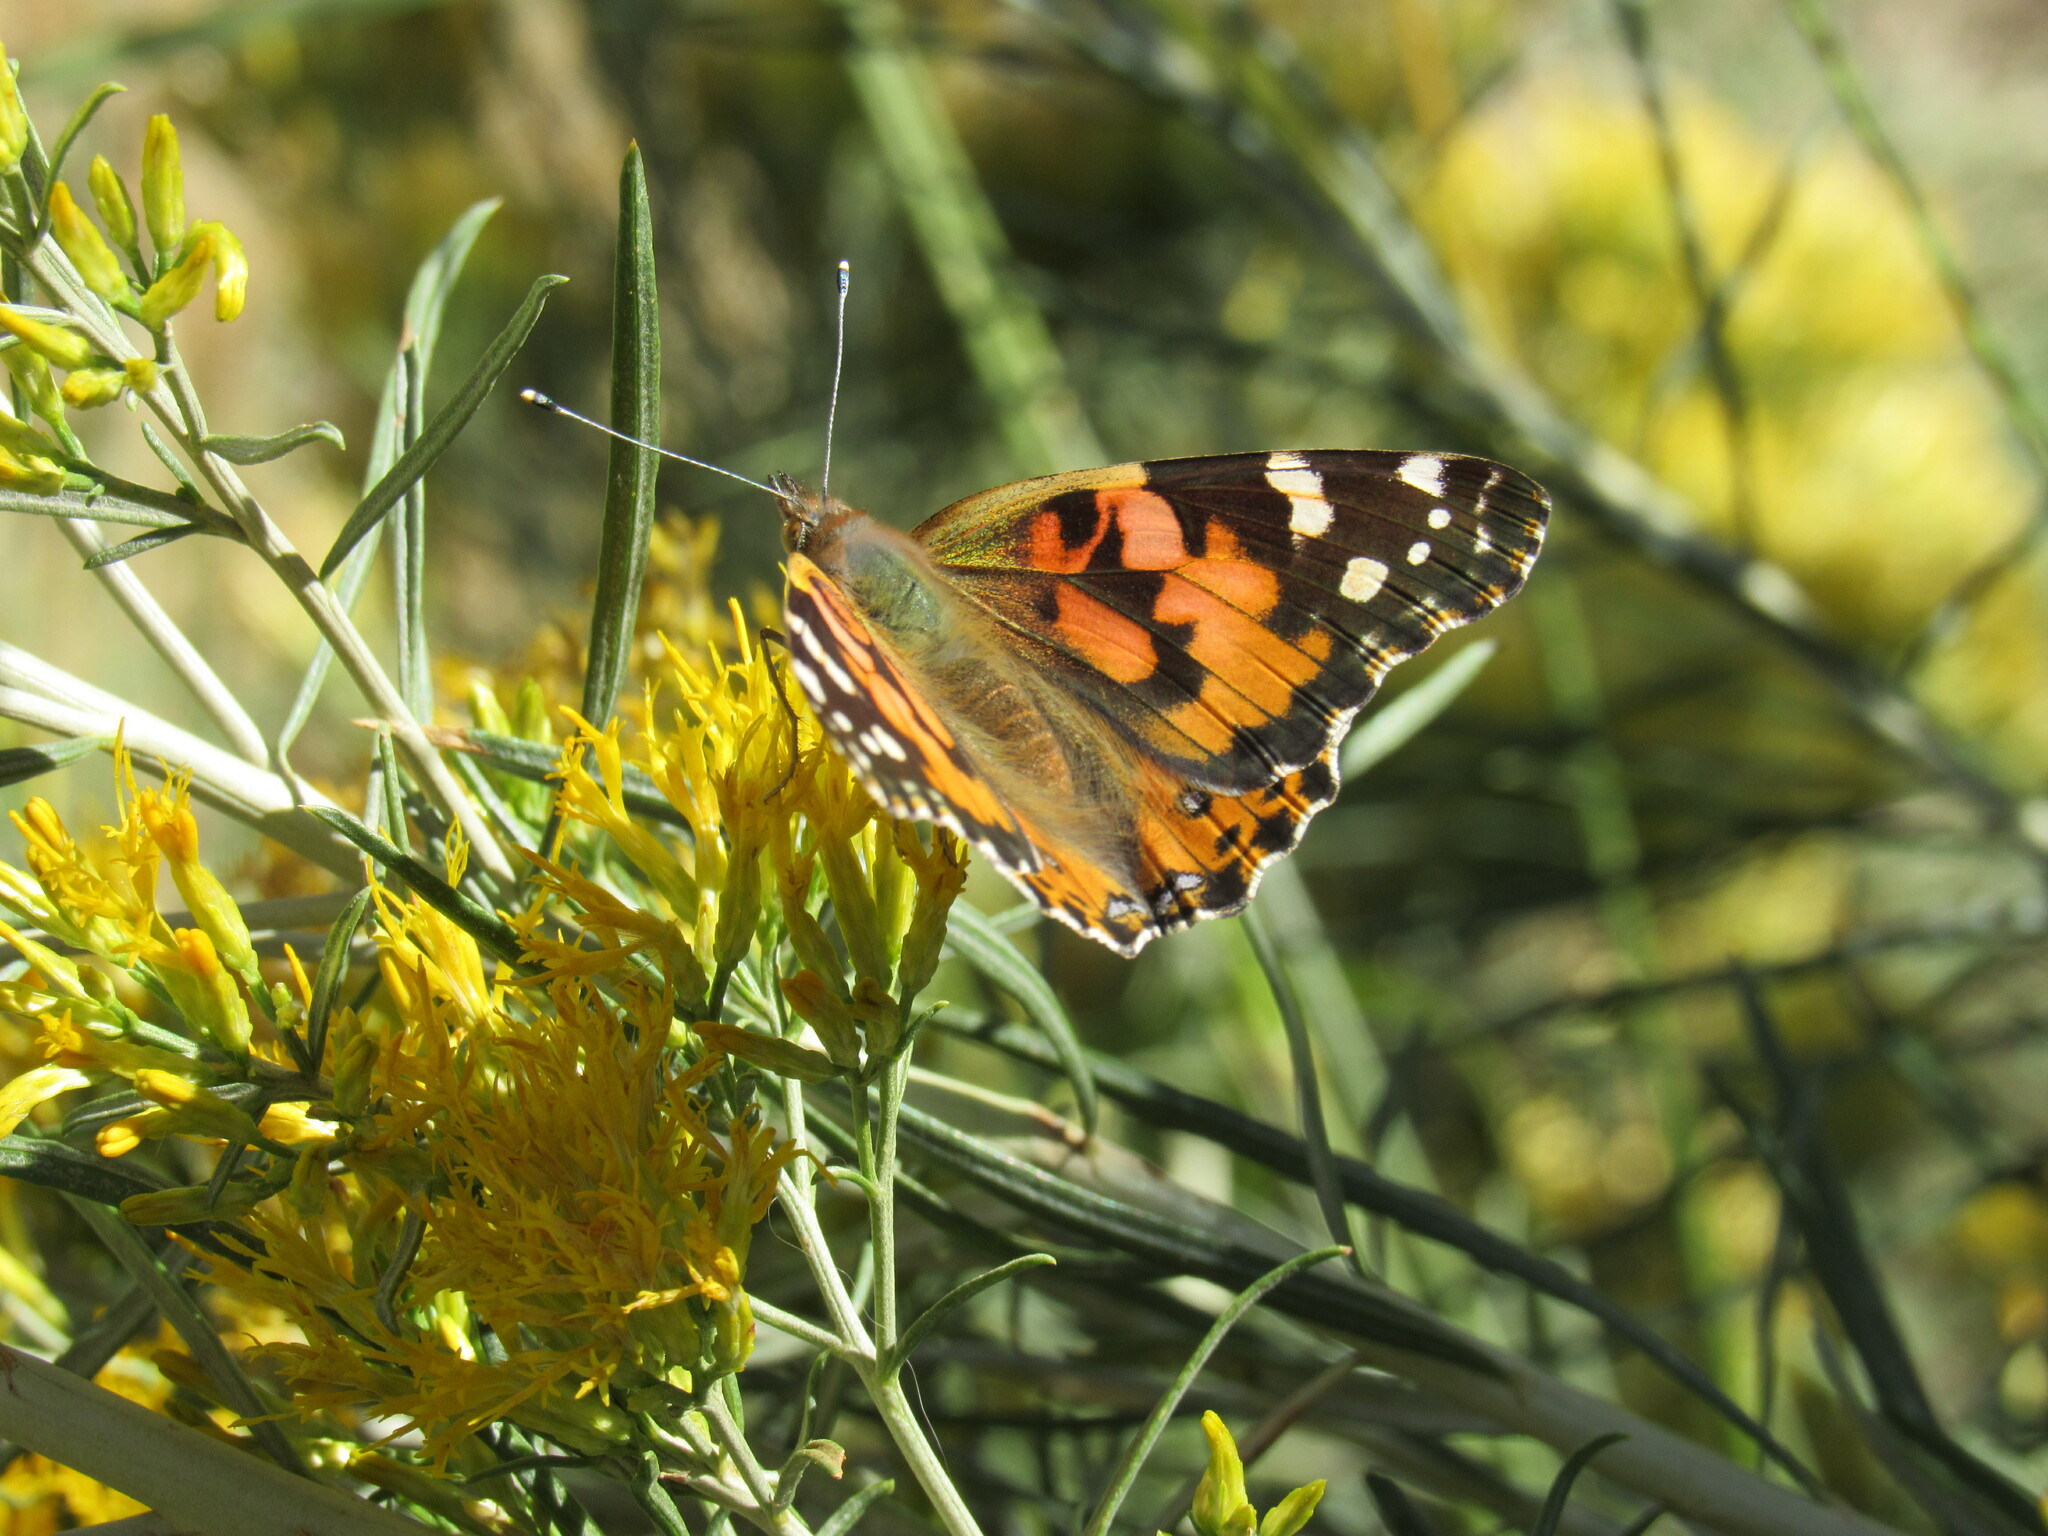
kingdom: Animalia
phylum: Arthropoda
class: Insecta
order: Lepidoptera
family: Nymphalidae
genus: Vanessa
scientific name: Vanessa cardui
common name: Painted lady
